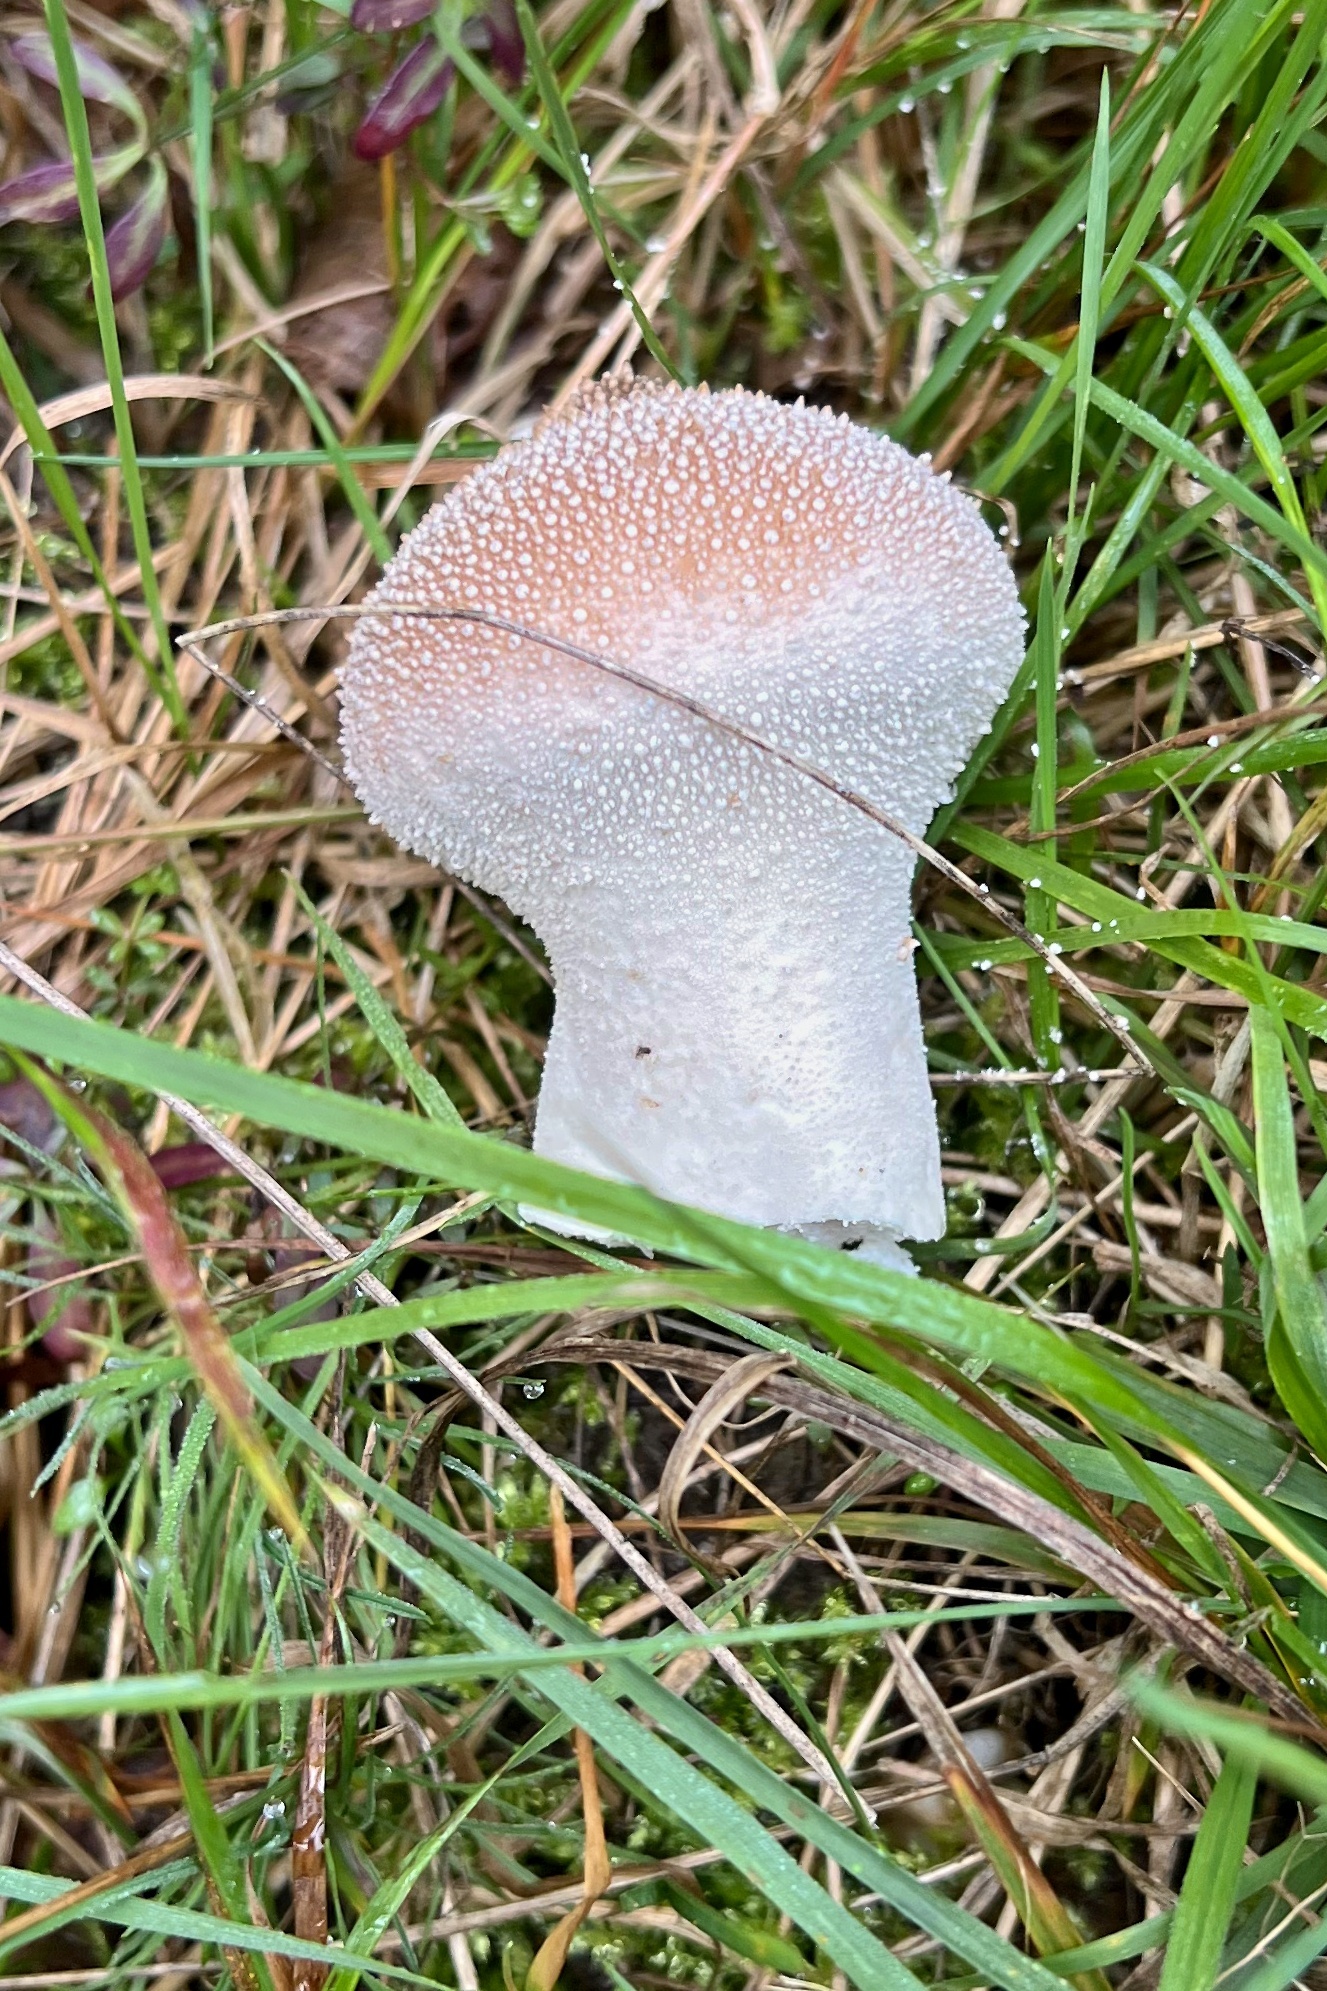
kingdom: Fungi
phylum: Basidiomycota
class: Agaricomycetes
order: Agaricales
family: Lycoperdaceae
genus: Lycoperdon
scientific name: Lycoperdon perlatum
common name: Common puffball
